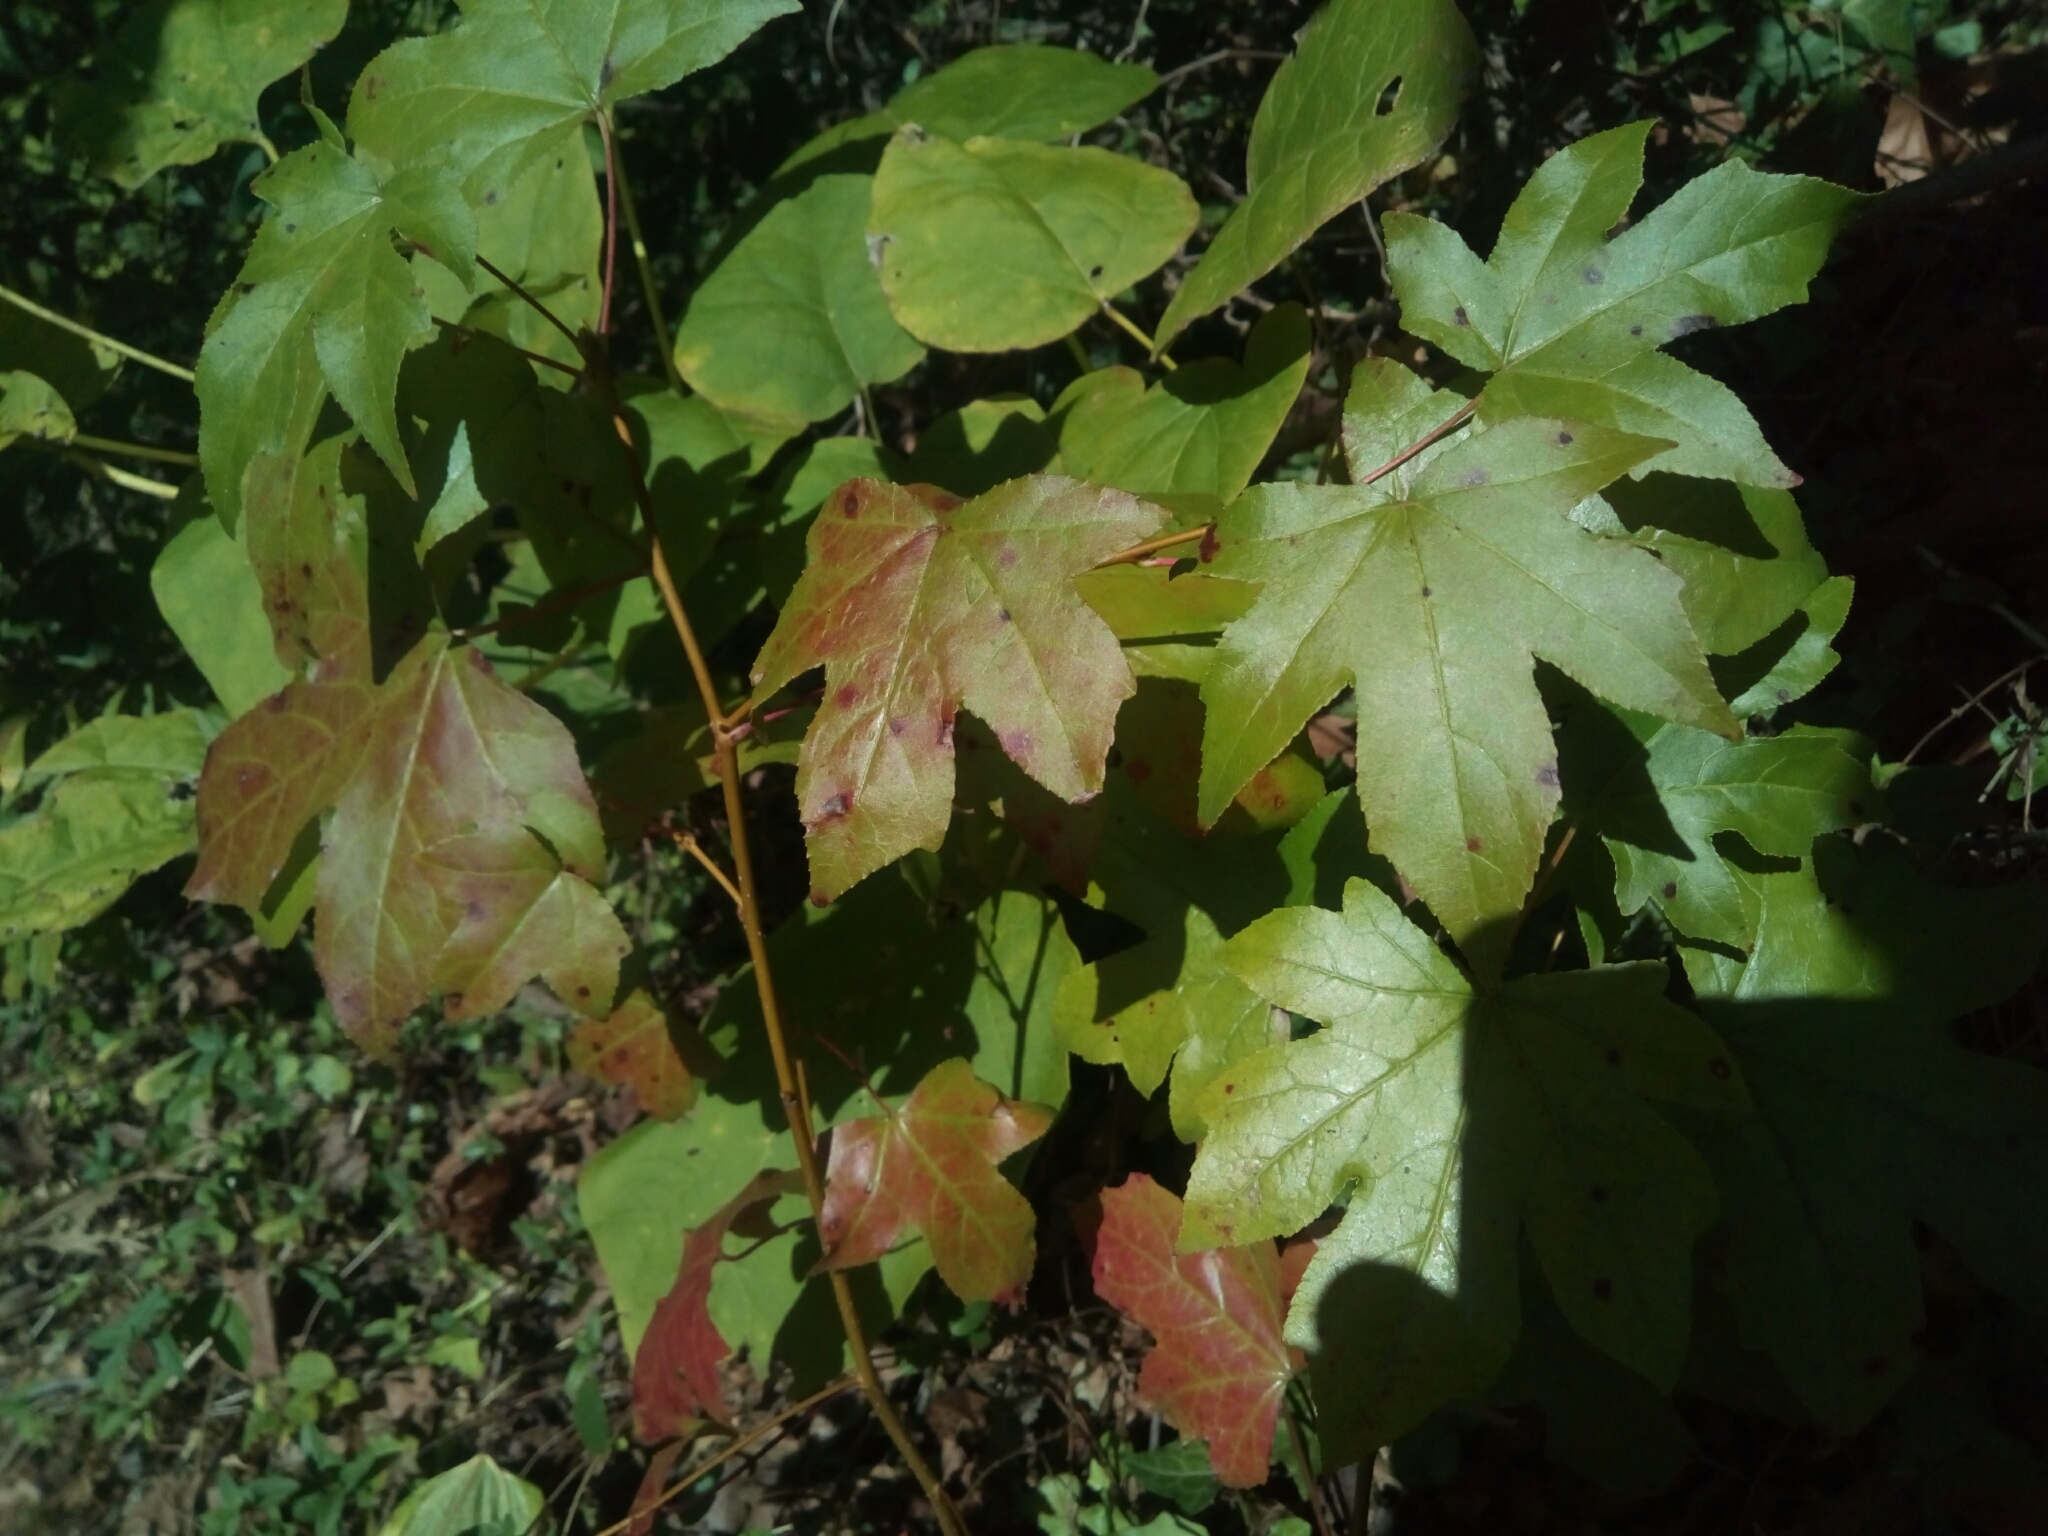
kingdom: Plantae
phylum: Tracheophyta
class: Magnoliopsida
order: Saxifragales
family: Altingiaceae
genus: Liquidambar
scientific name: Liquidambar styraciflua
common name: Sweet gum
